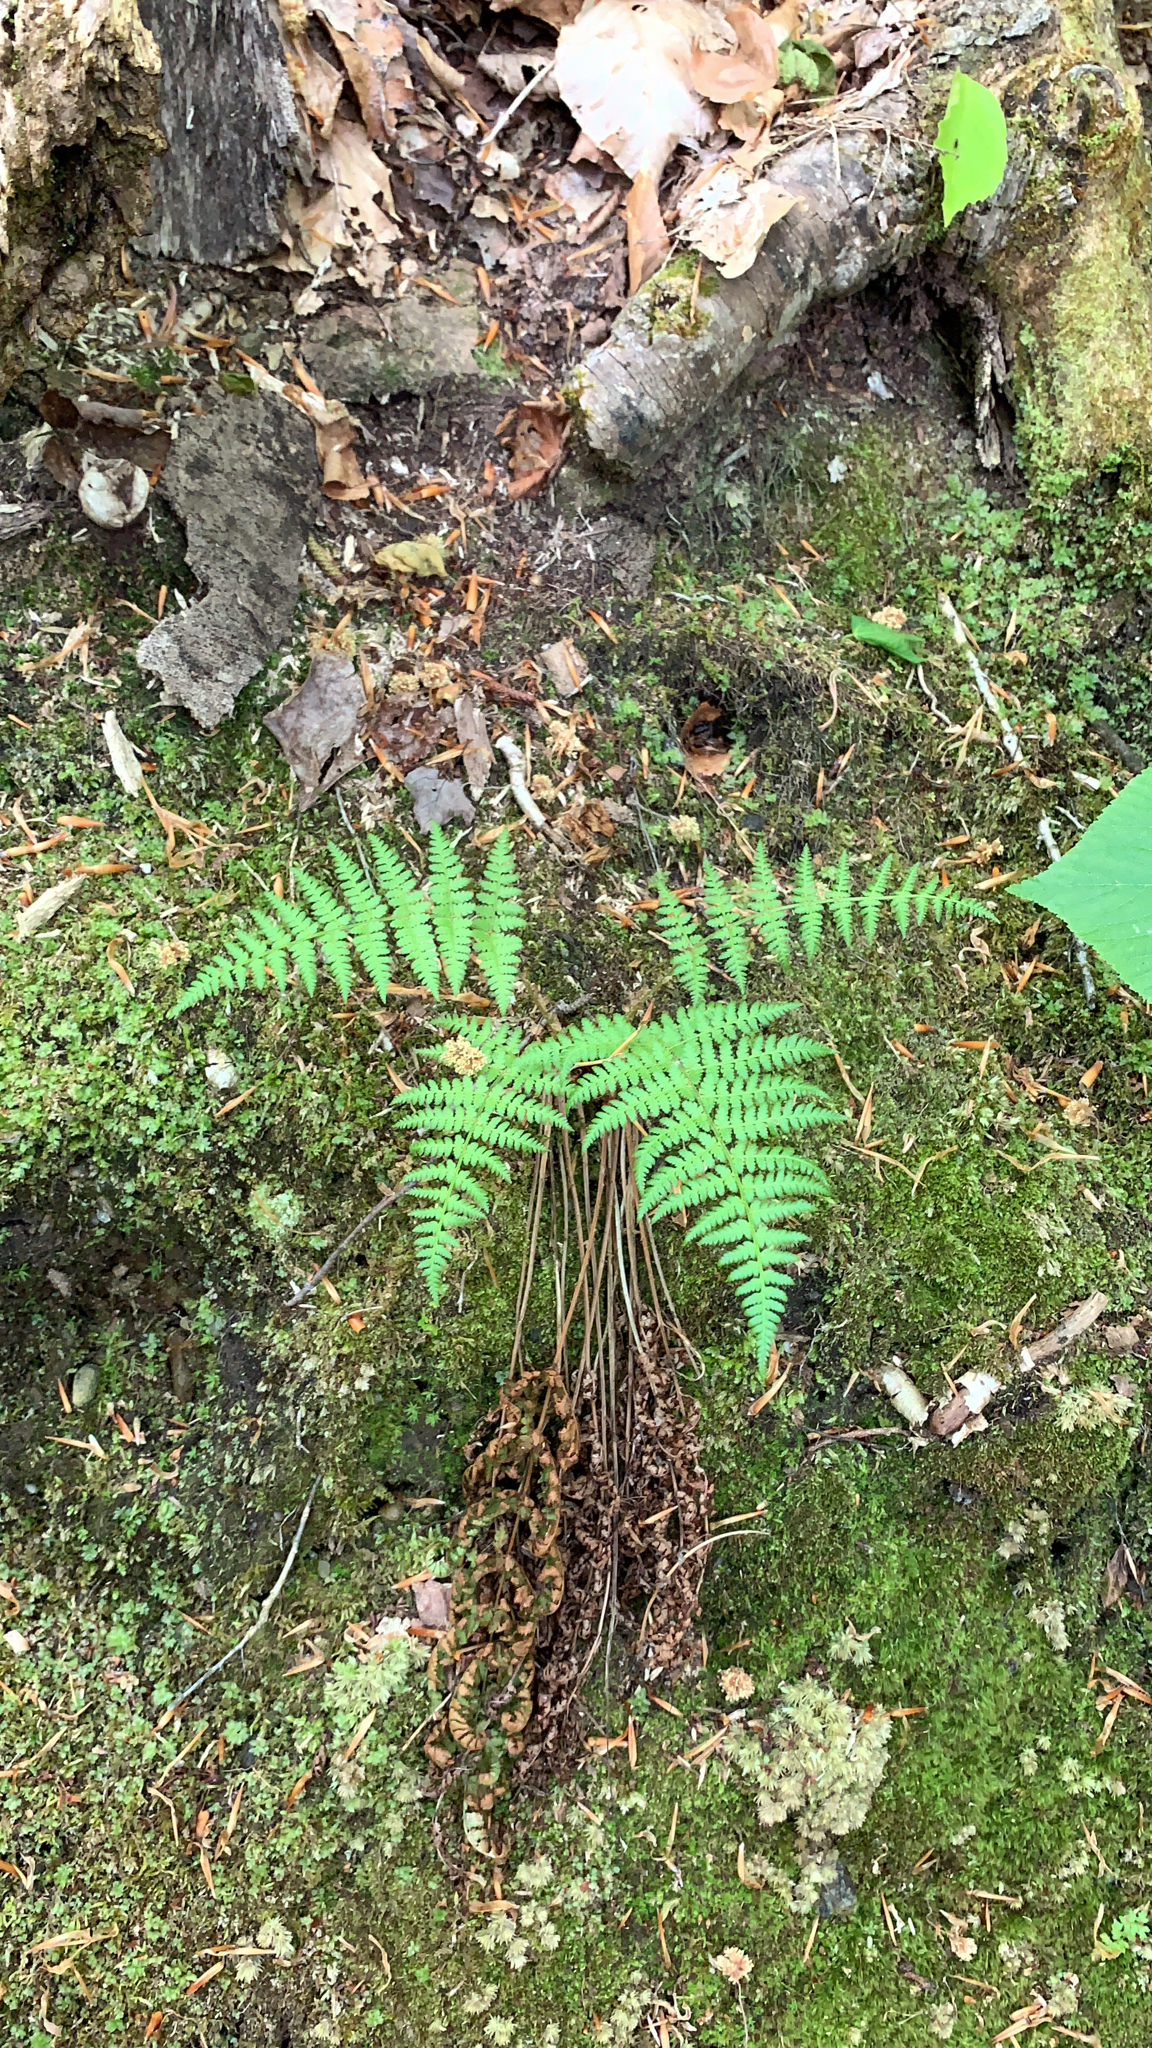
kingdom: Plantae
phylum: Tracheophyta
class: Polypodiopsida
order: Polypodiales
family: Dryopteridaceae
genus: Dryopteris
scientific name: Dryopteris intermedia
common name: Evergreen wood fern
